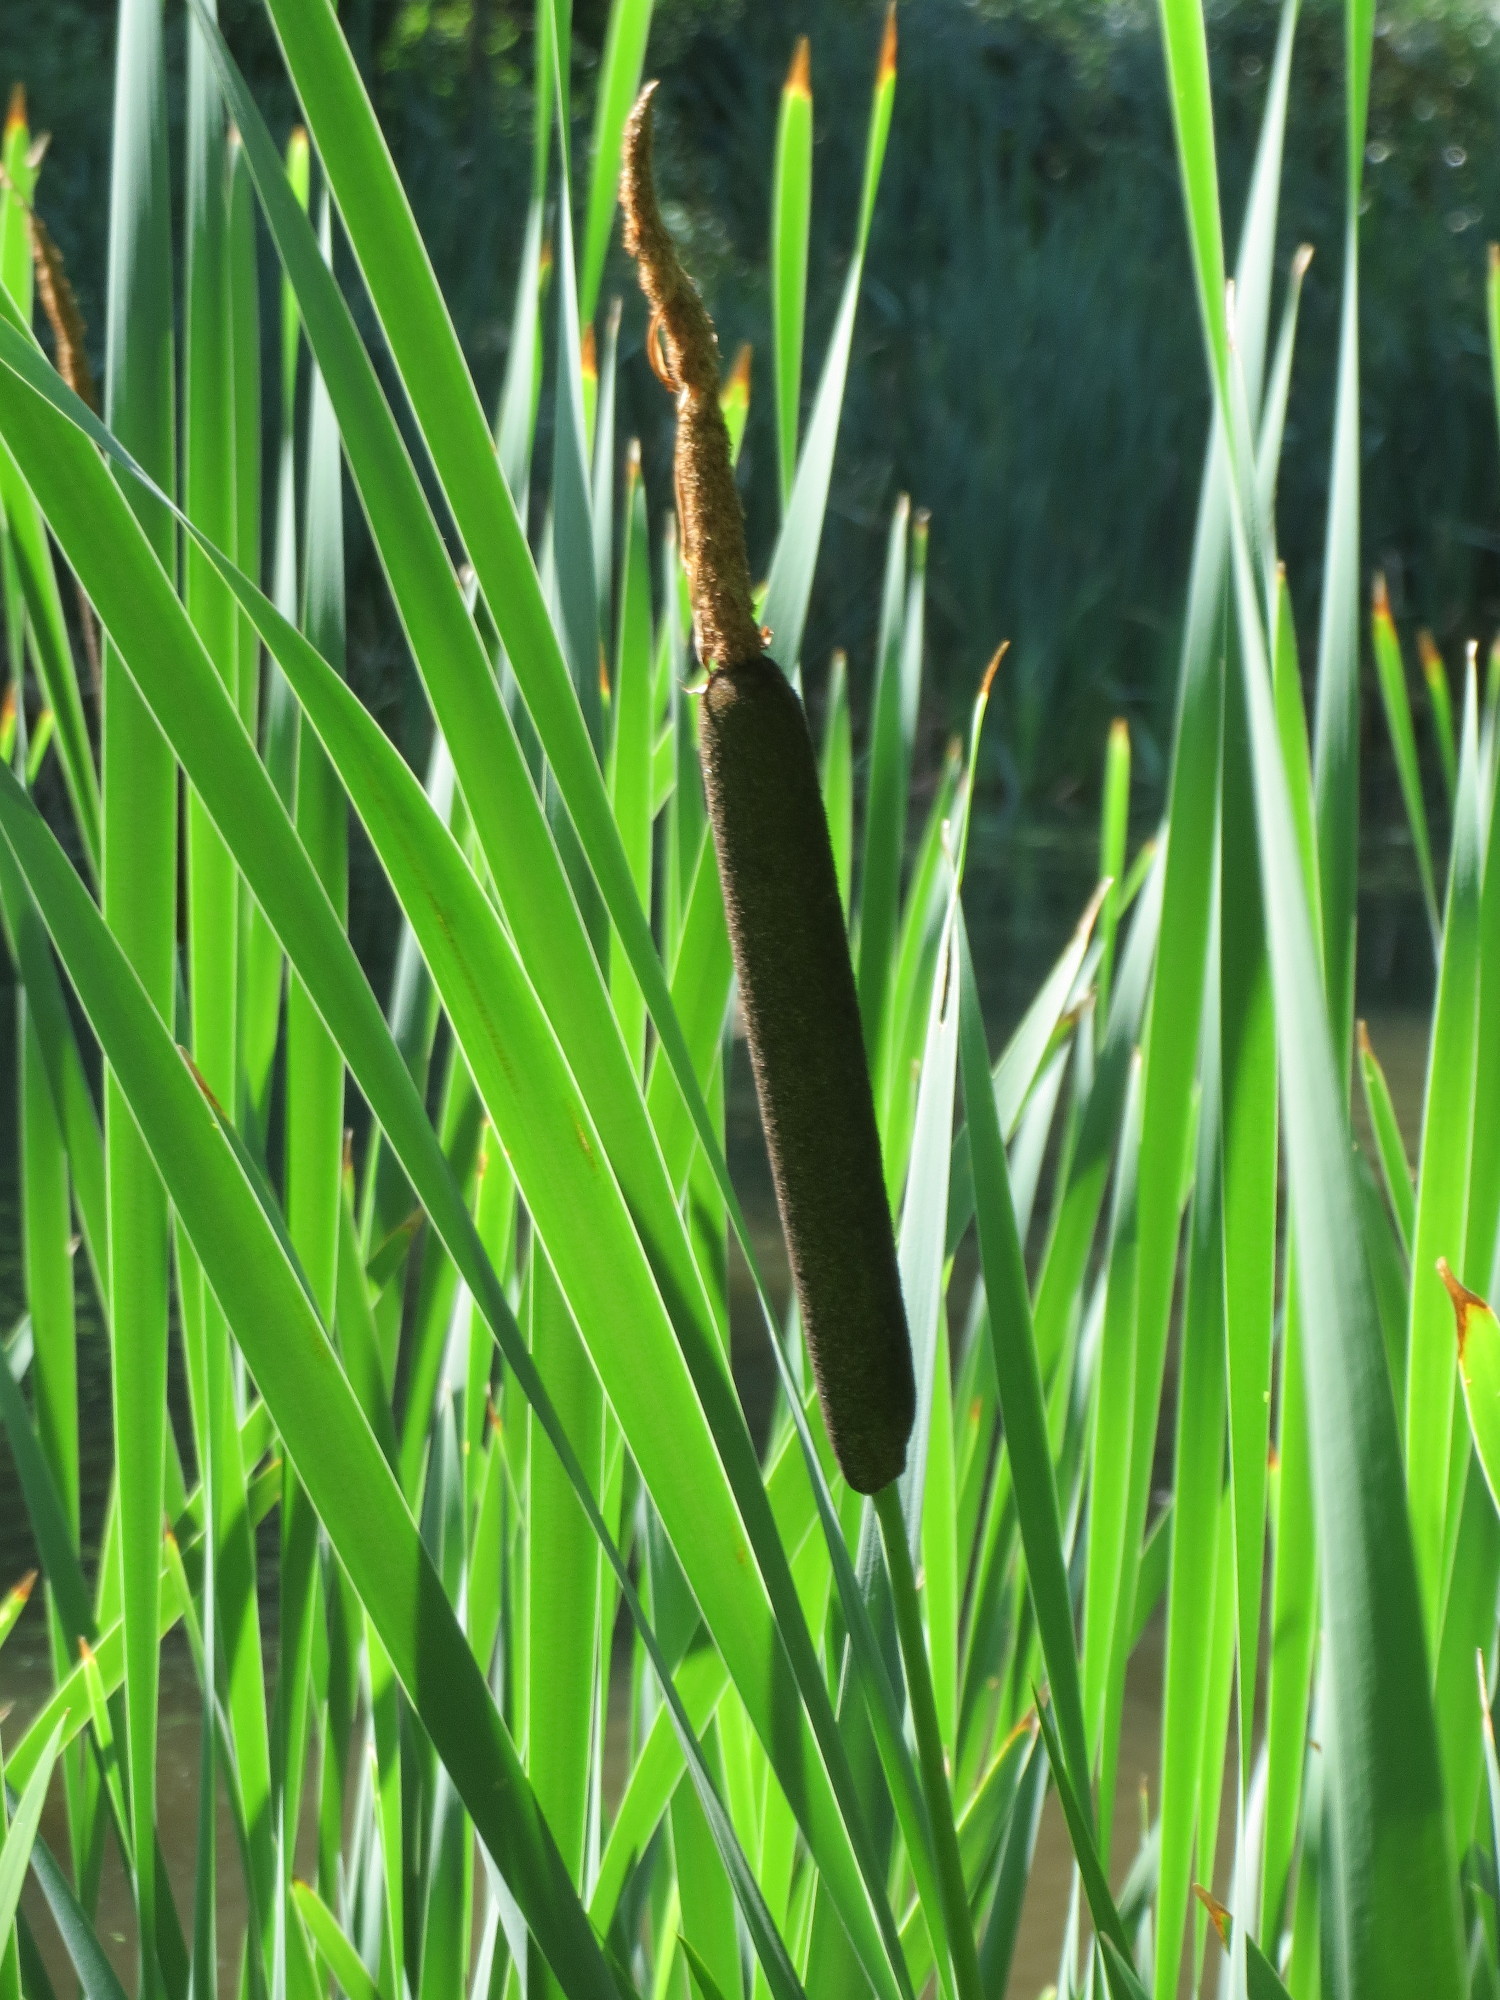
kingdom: Plantae
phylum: Tracheophyta
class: Liliopsida
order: Poales
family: Typhaceae
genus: Typha
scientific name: Typha latifolia
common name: Broadleaf cattail
